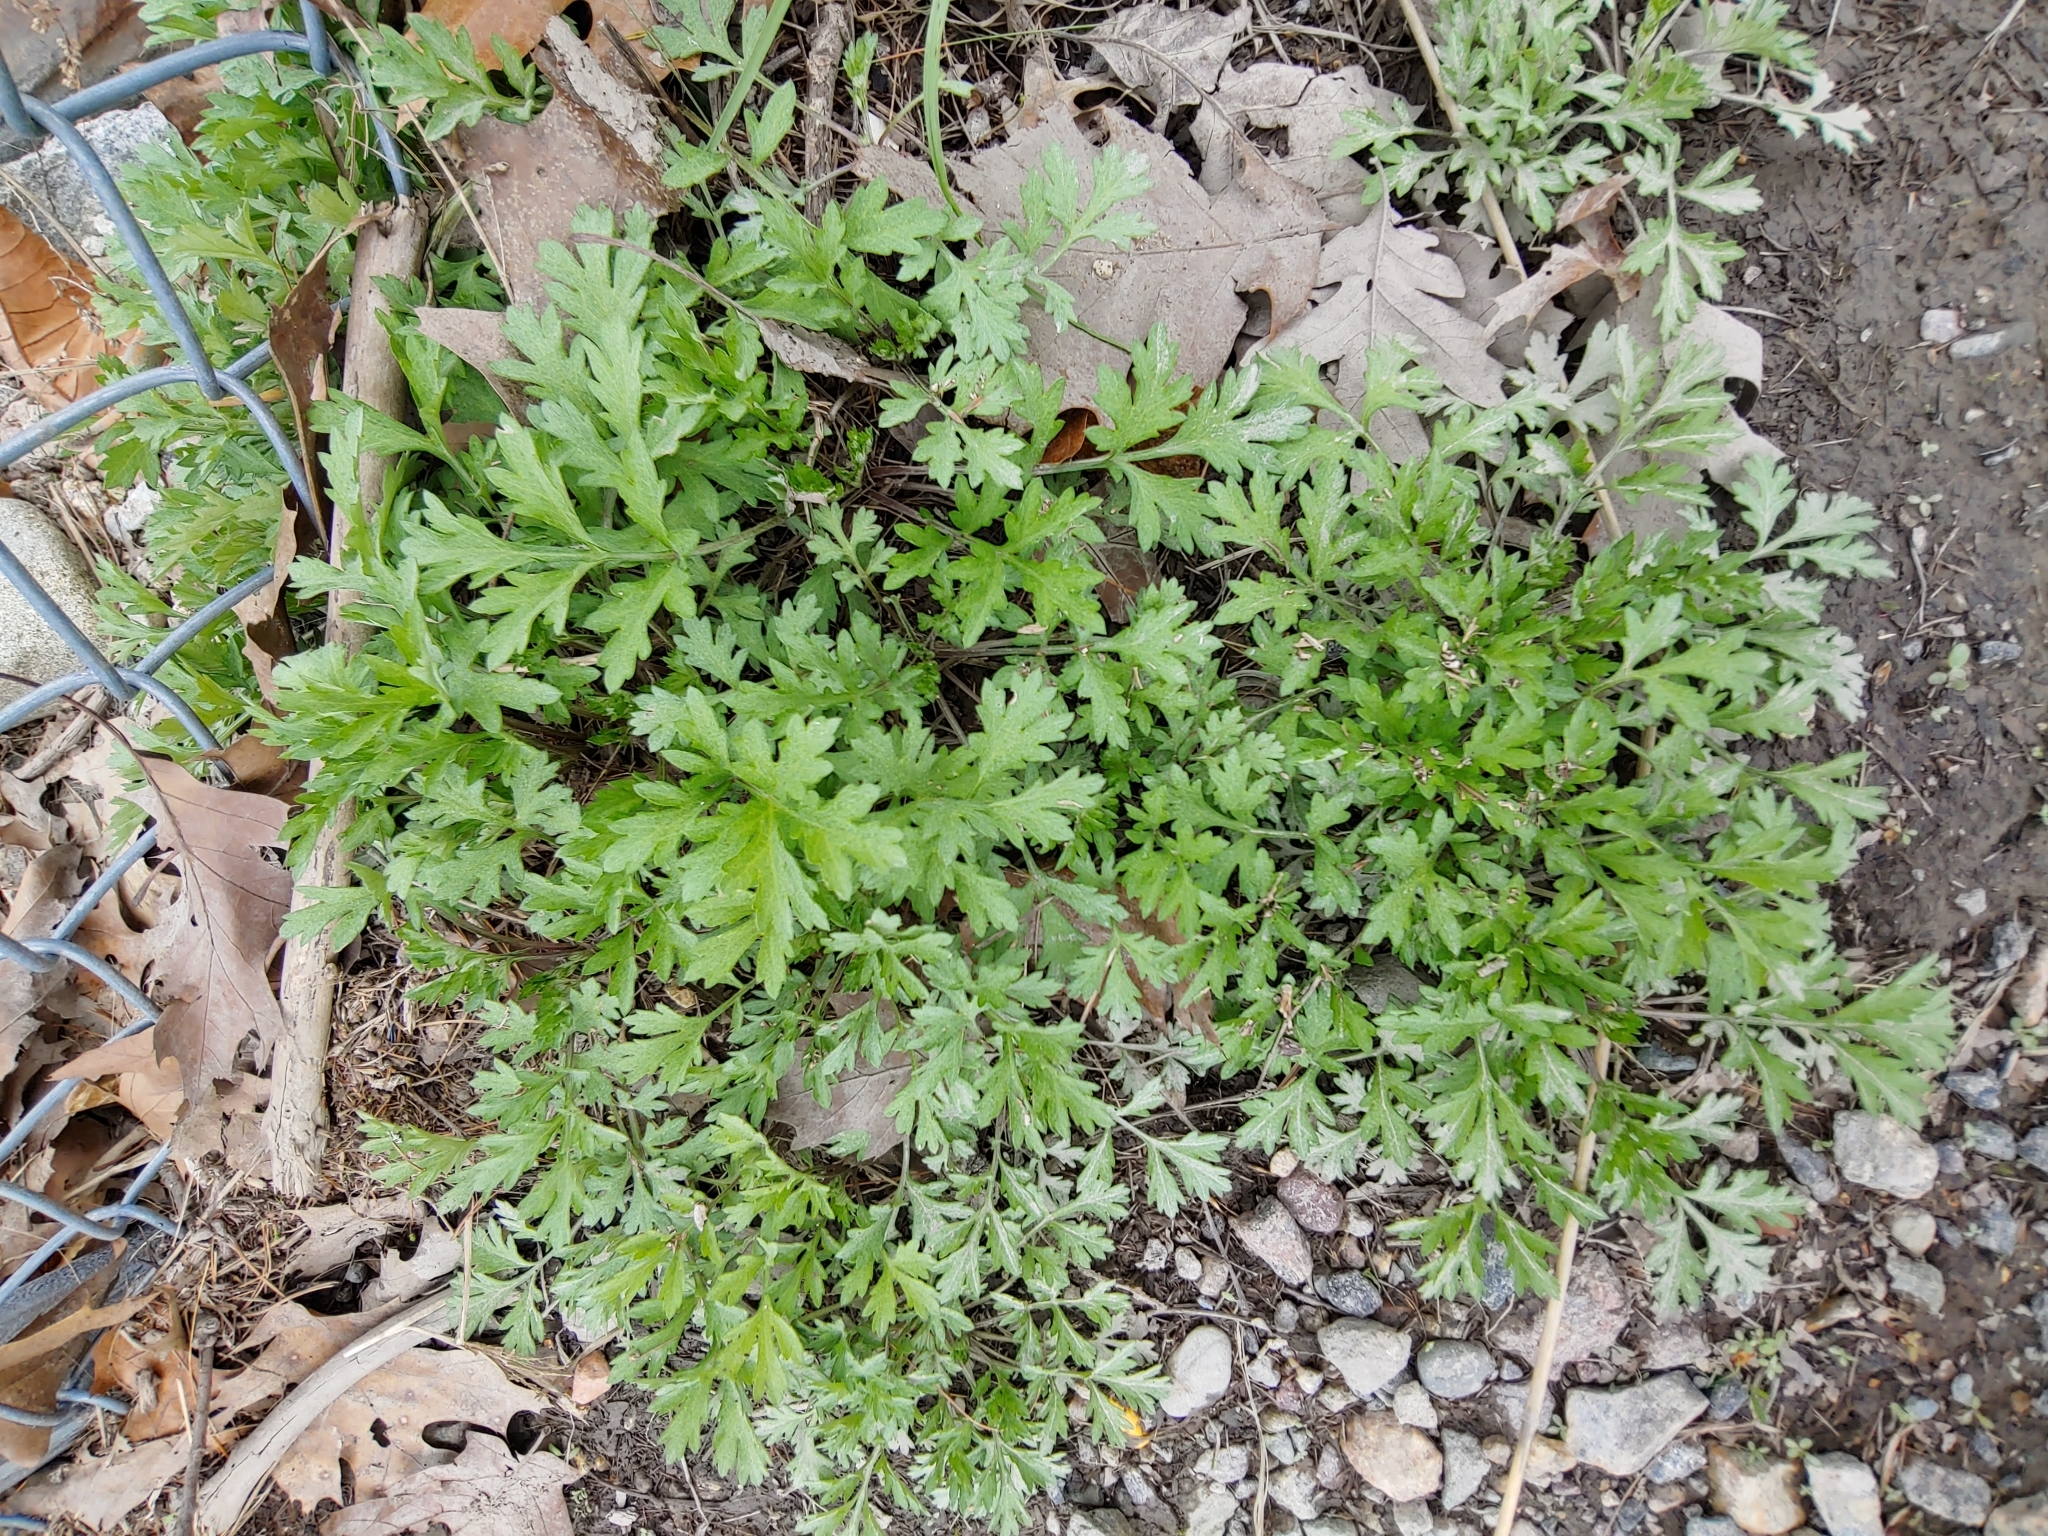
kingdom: Plantae
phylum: Tracheophyta
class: Magnoliopsida
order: Asterales
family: Asteraceae
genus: Artemisia
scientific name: Artemisia vulgaris
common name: Mugwort
